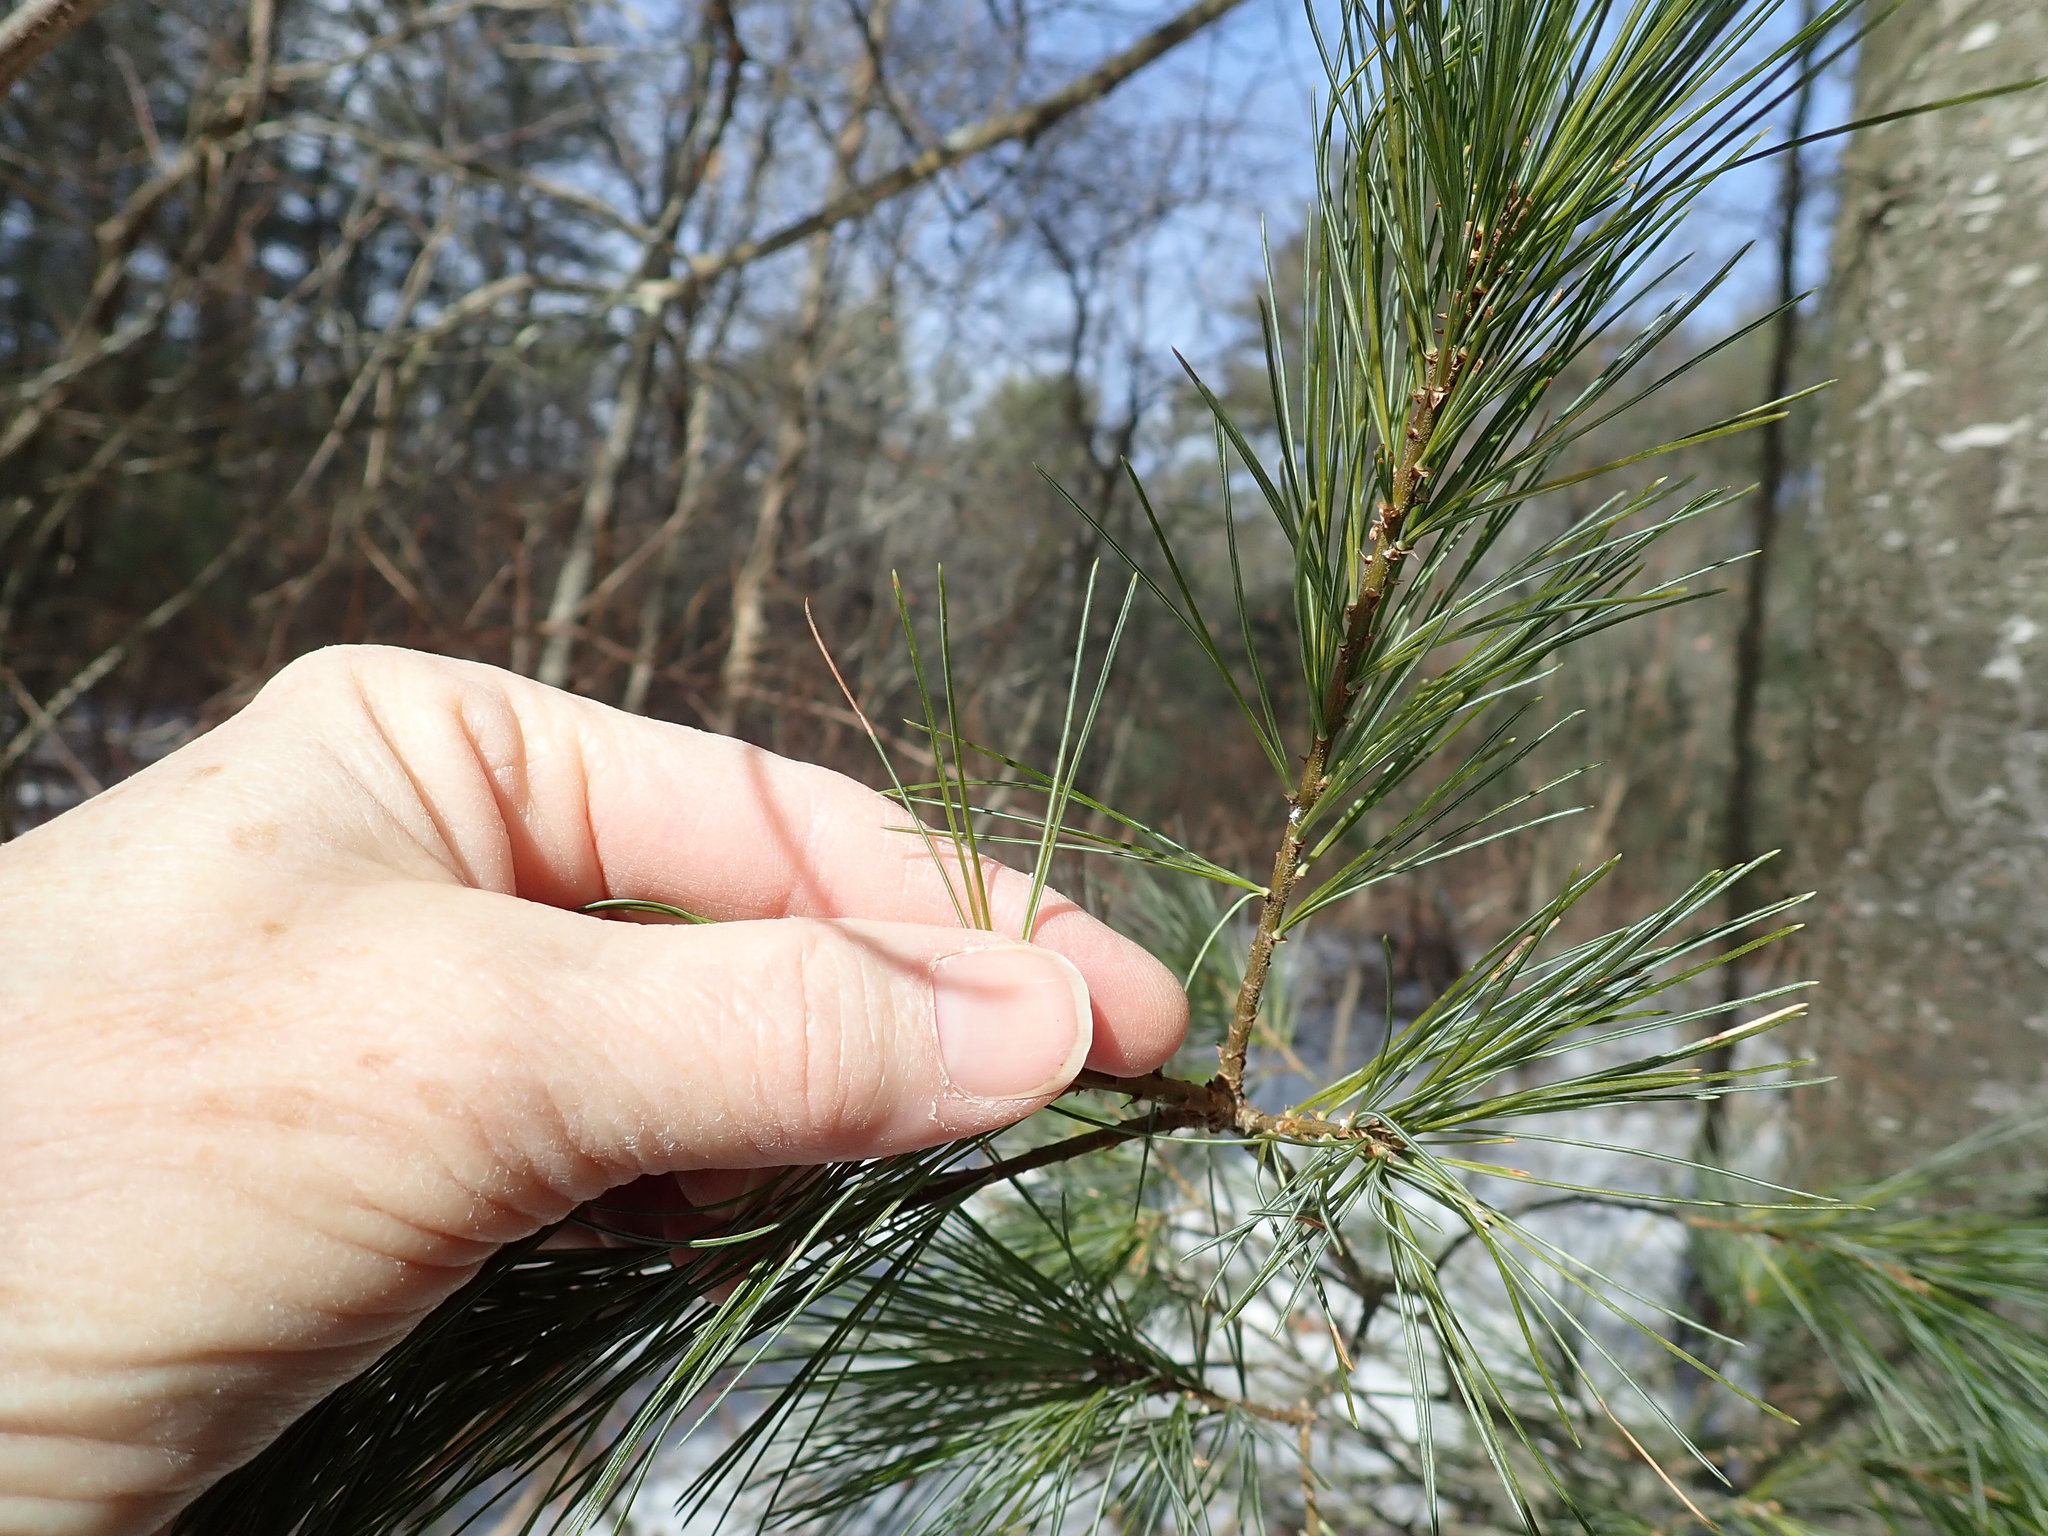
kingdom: Plantae
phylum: Tracheophyta
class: Pinopsida
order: Pinales
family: Pinaceae
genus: Pinus
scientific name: Pinus strobus
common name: Weymouth pine
